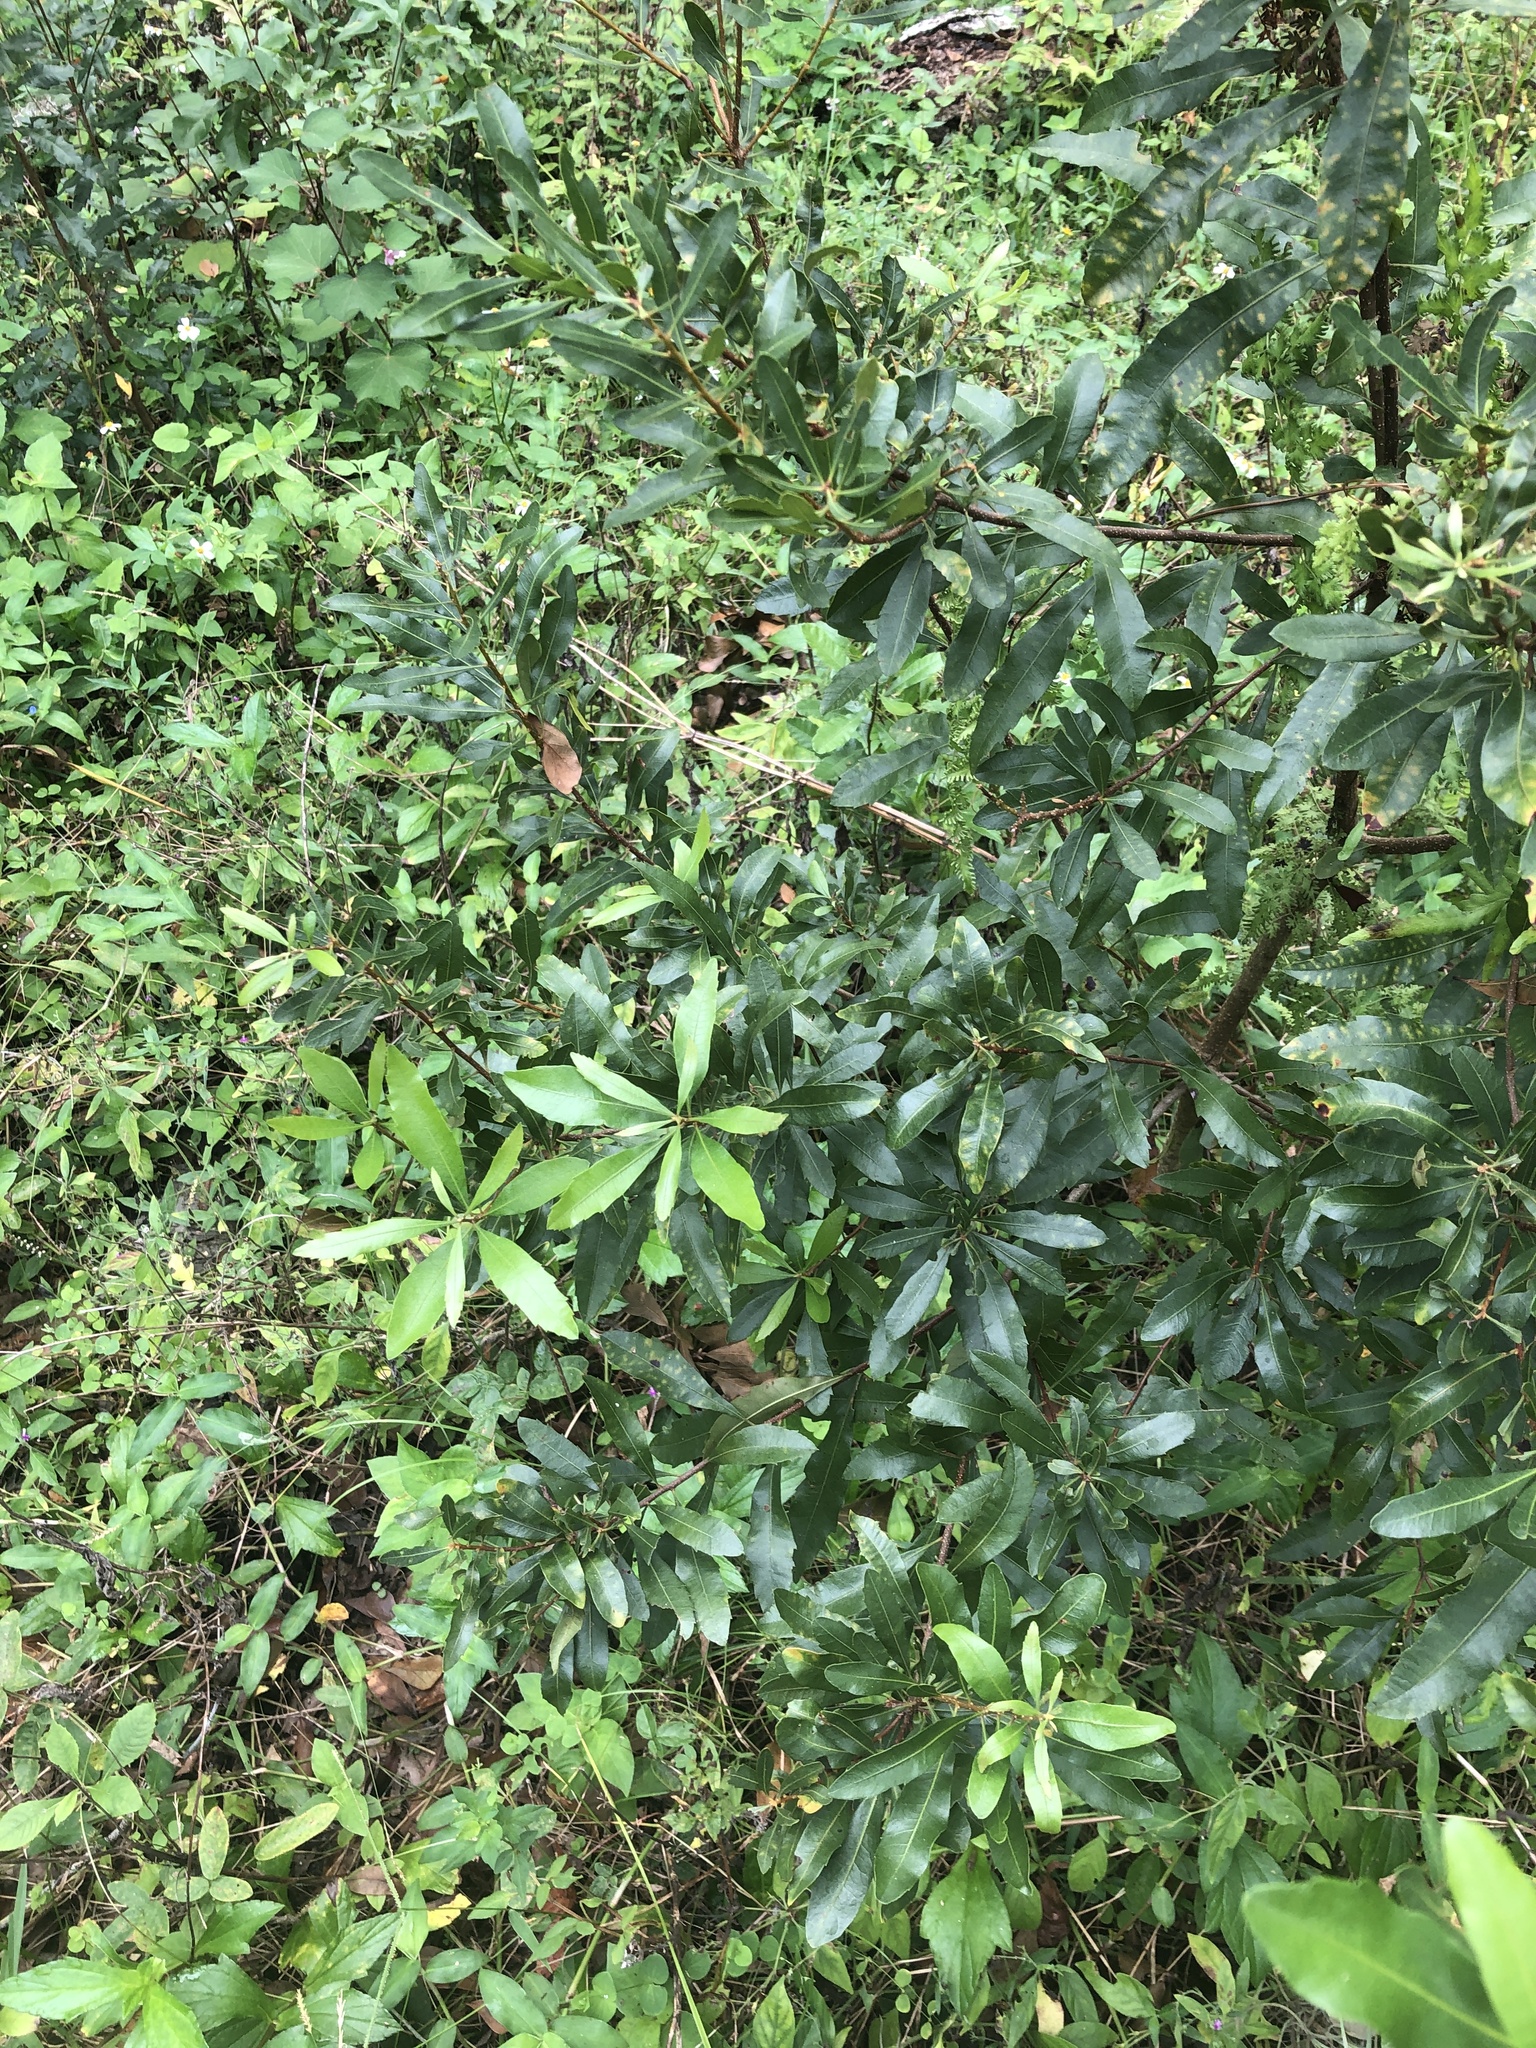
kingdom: Plantae
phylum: Tracheophyta
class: Magnoliopsida
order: Fagales
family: Myricaceae
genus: Morella
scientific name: Morella cerifera
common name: Wax myrtle
